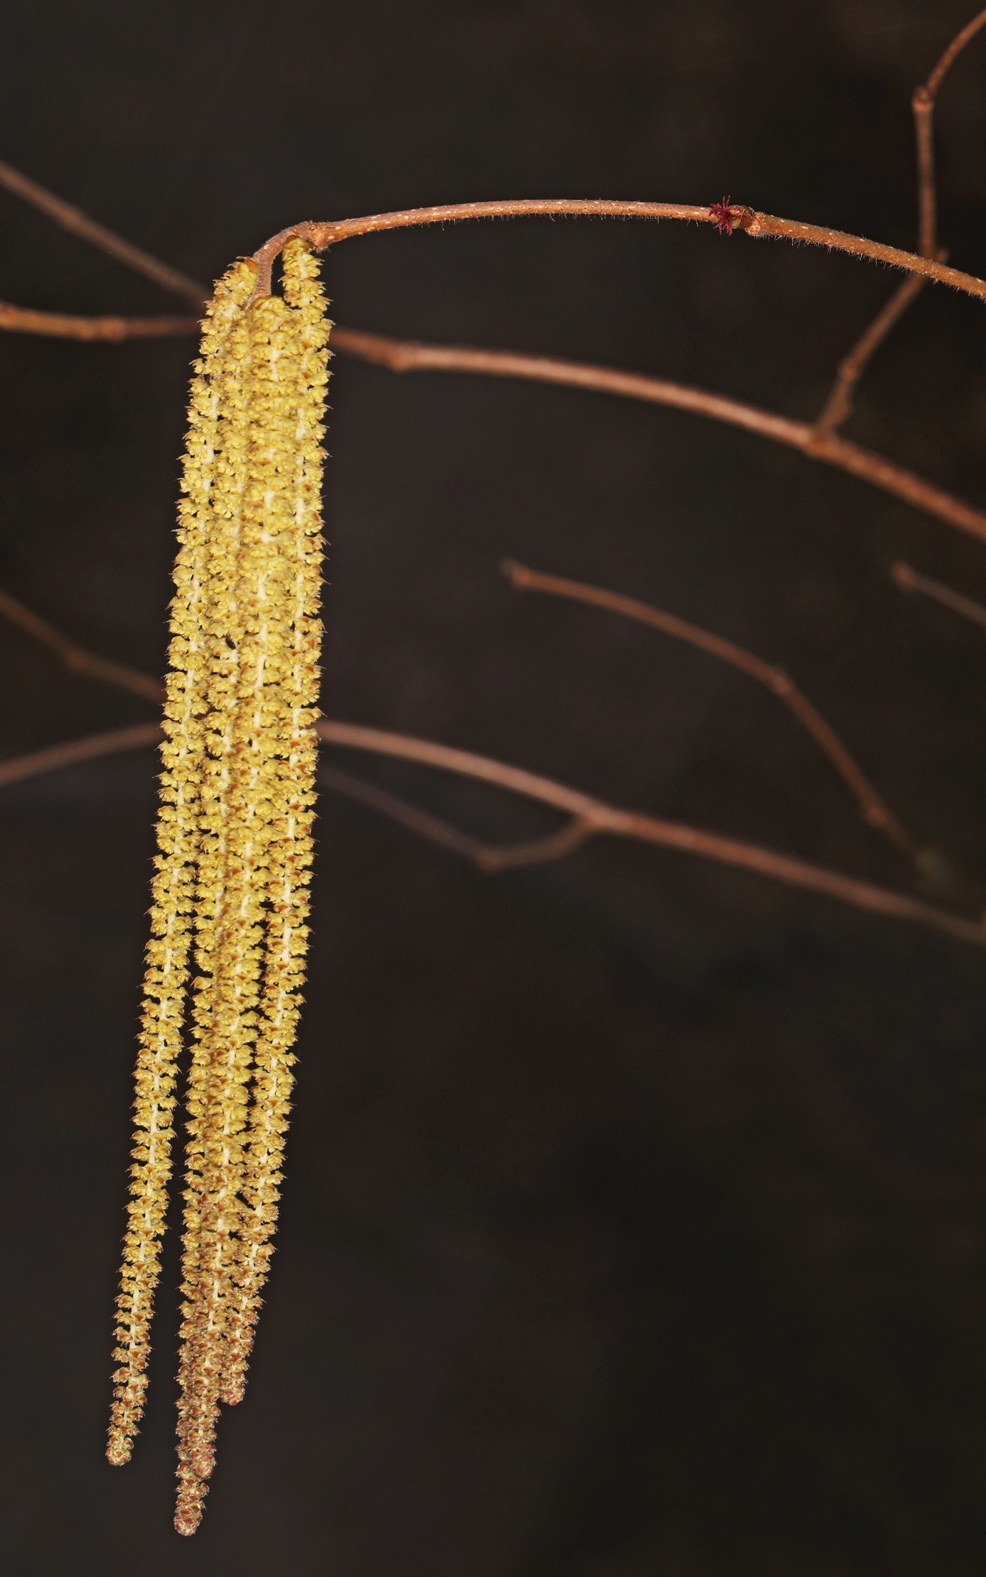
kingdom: Plantae
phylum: Tracheophyta
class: Magnoliopsida
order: Fagales
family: Betulaceae
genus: Corylus
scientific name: Corylus americana
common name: American hazel
